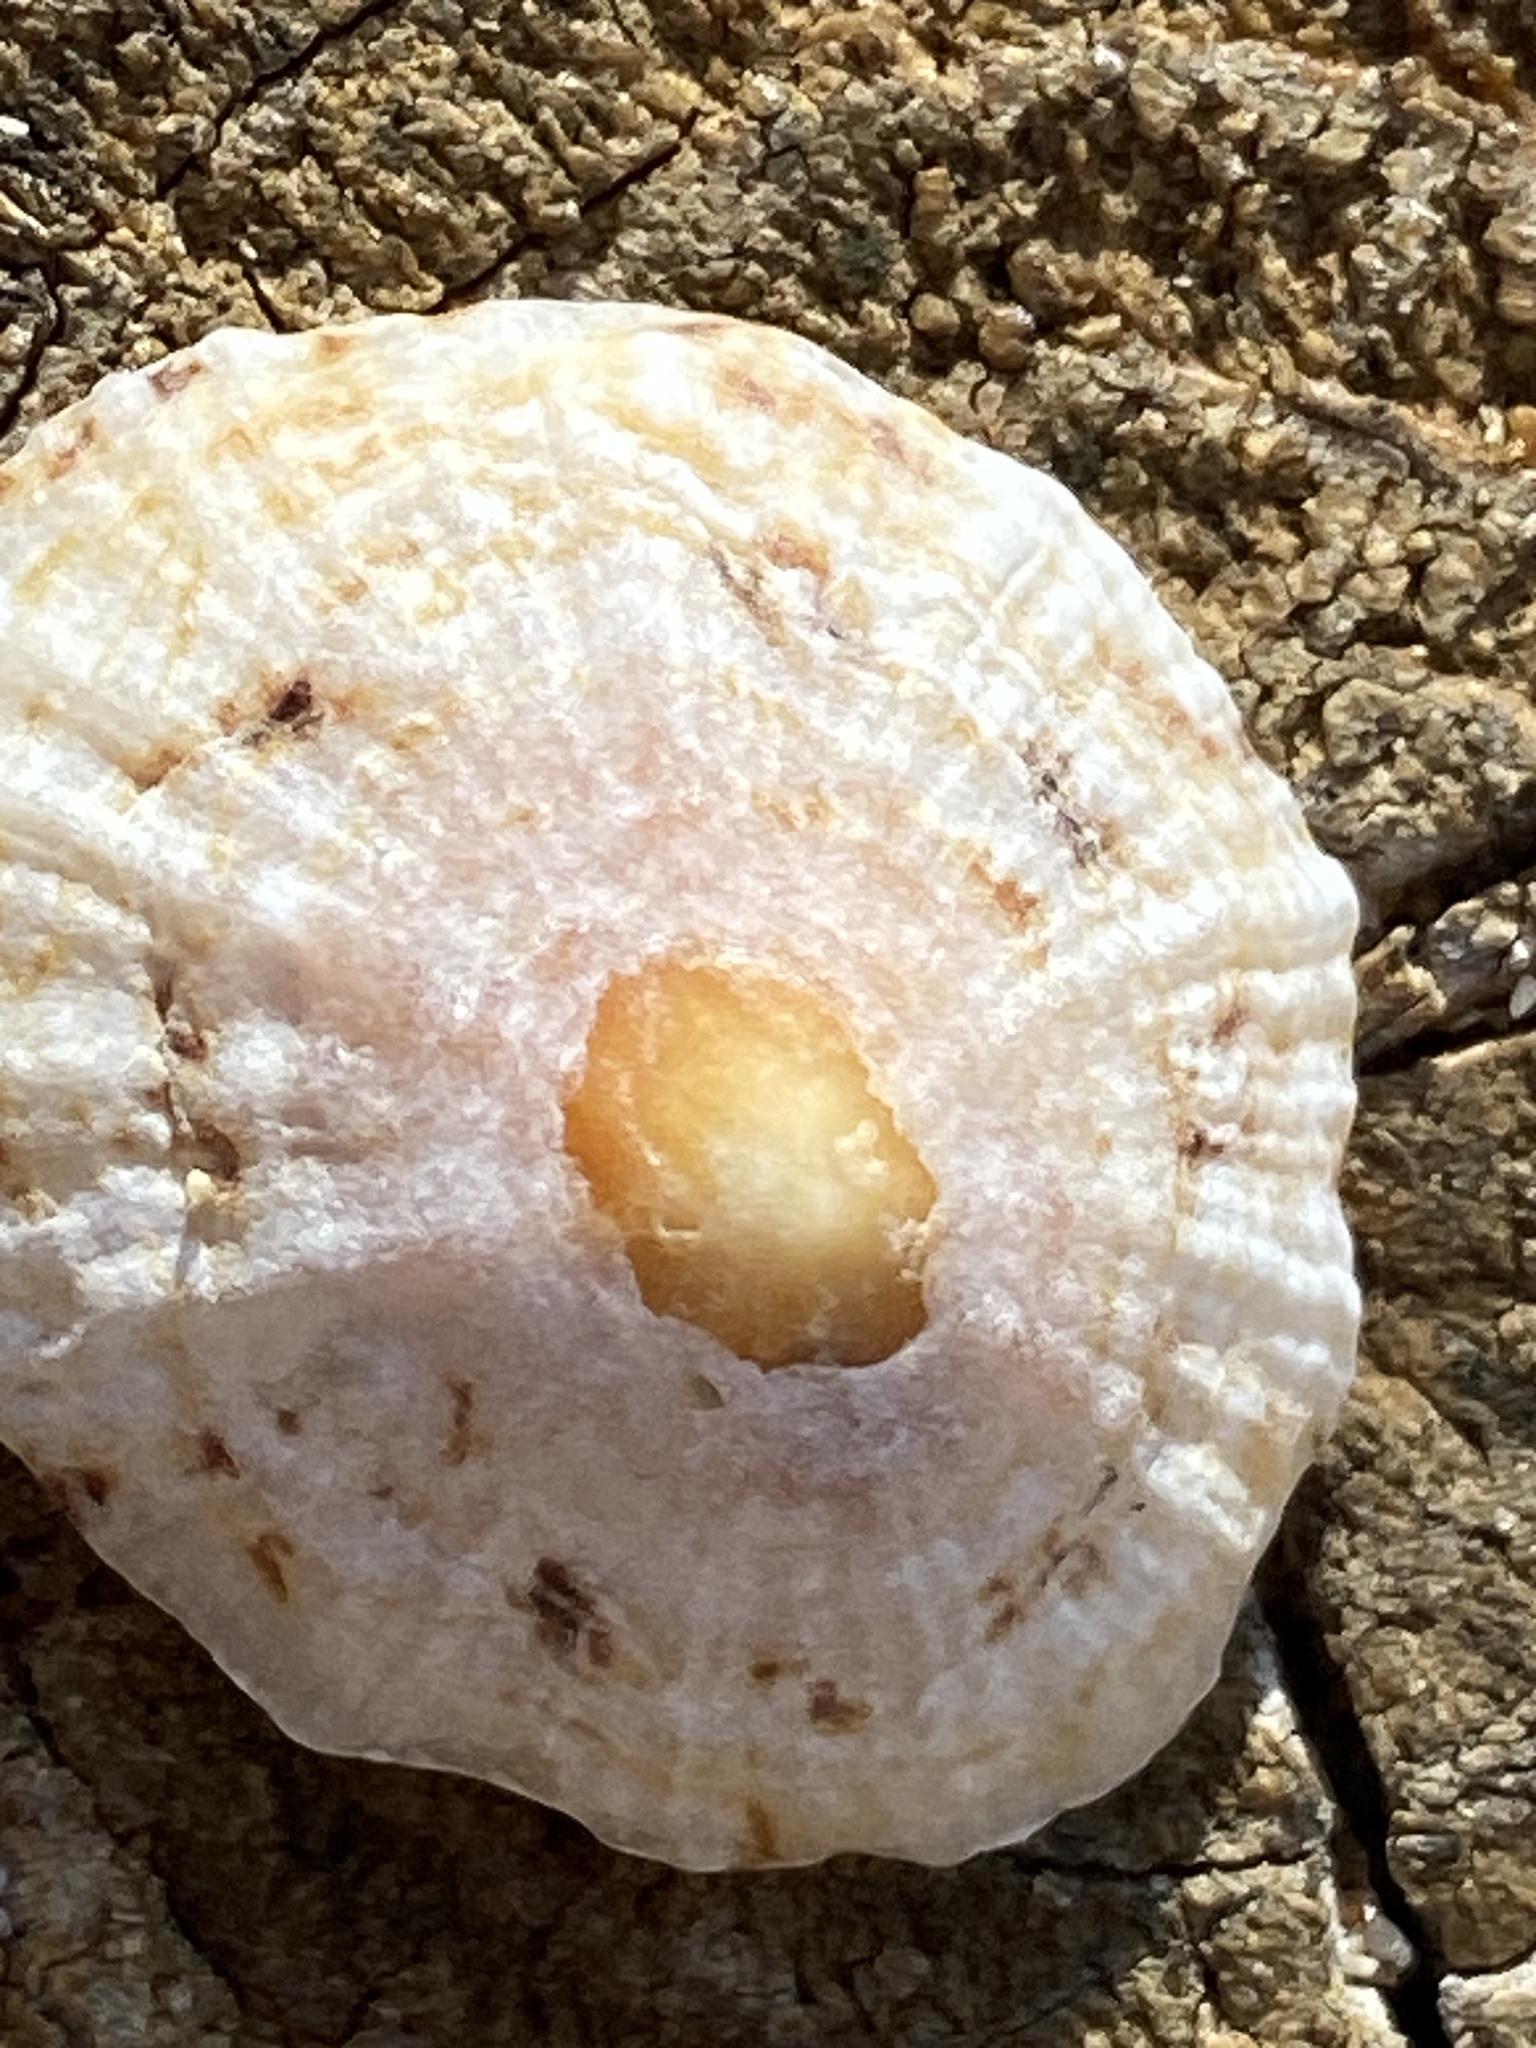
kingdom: Animalia
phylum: Mollusca
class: Gastropoda
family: Patellidae
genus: Patella
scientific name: Patella caerulea
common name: Mediterranean limpet
